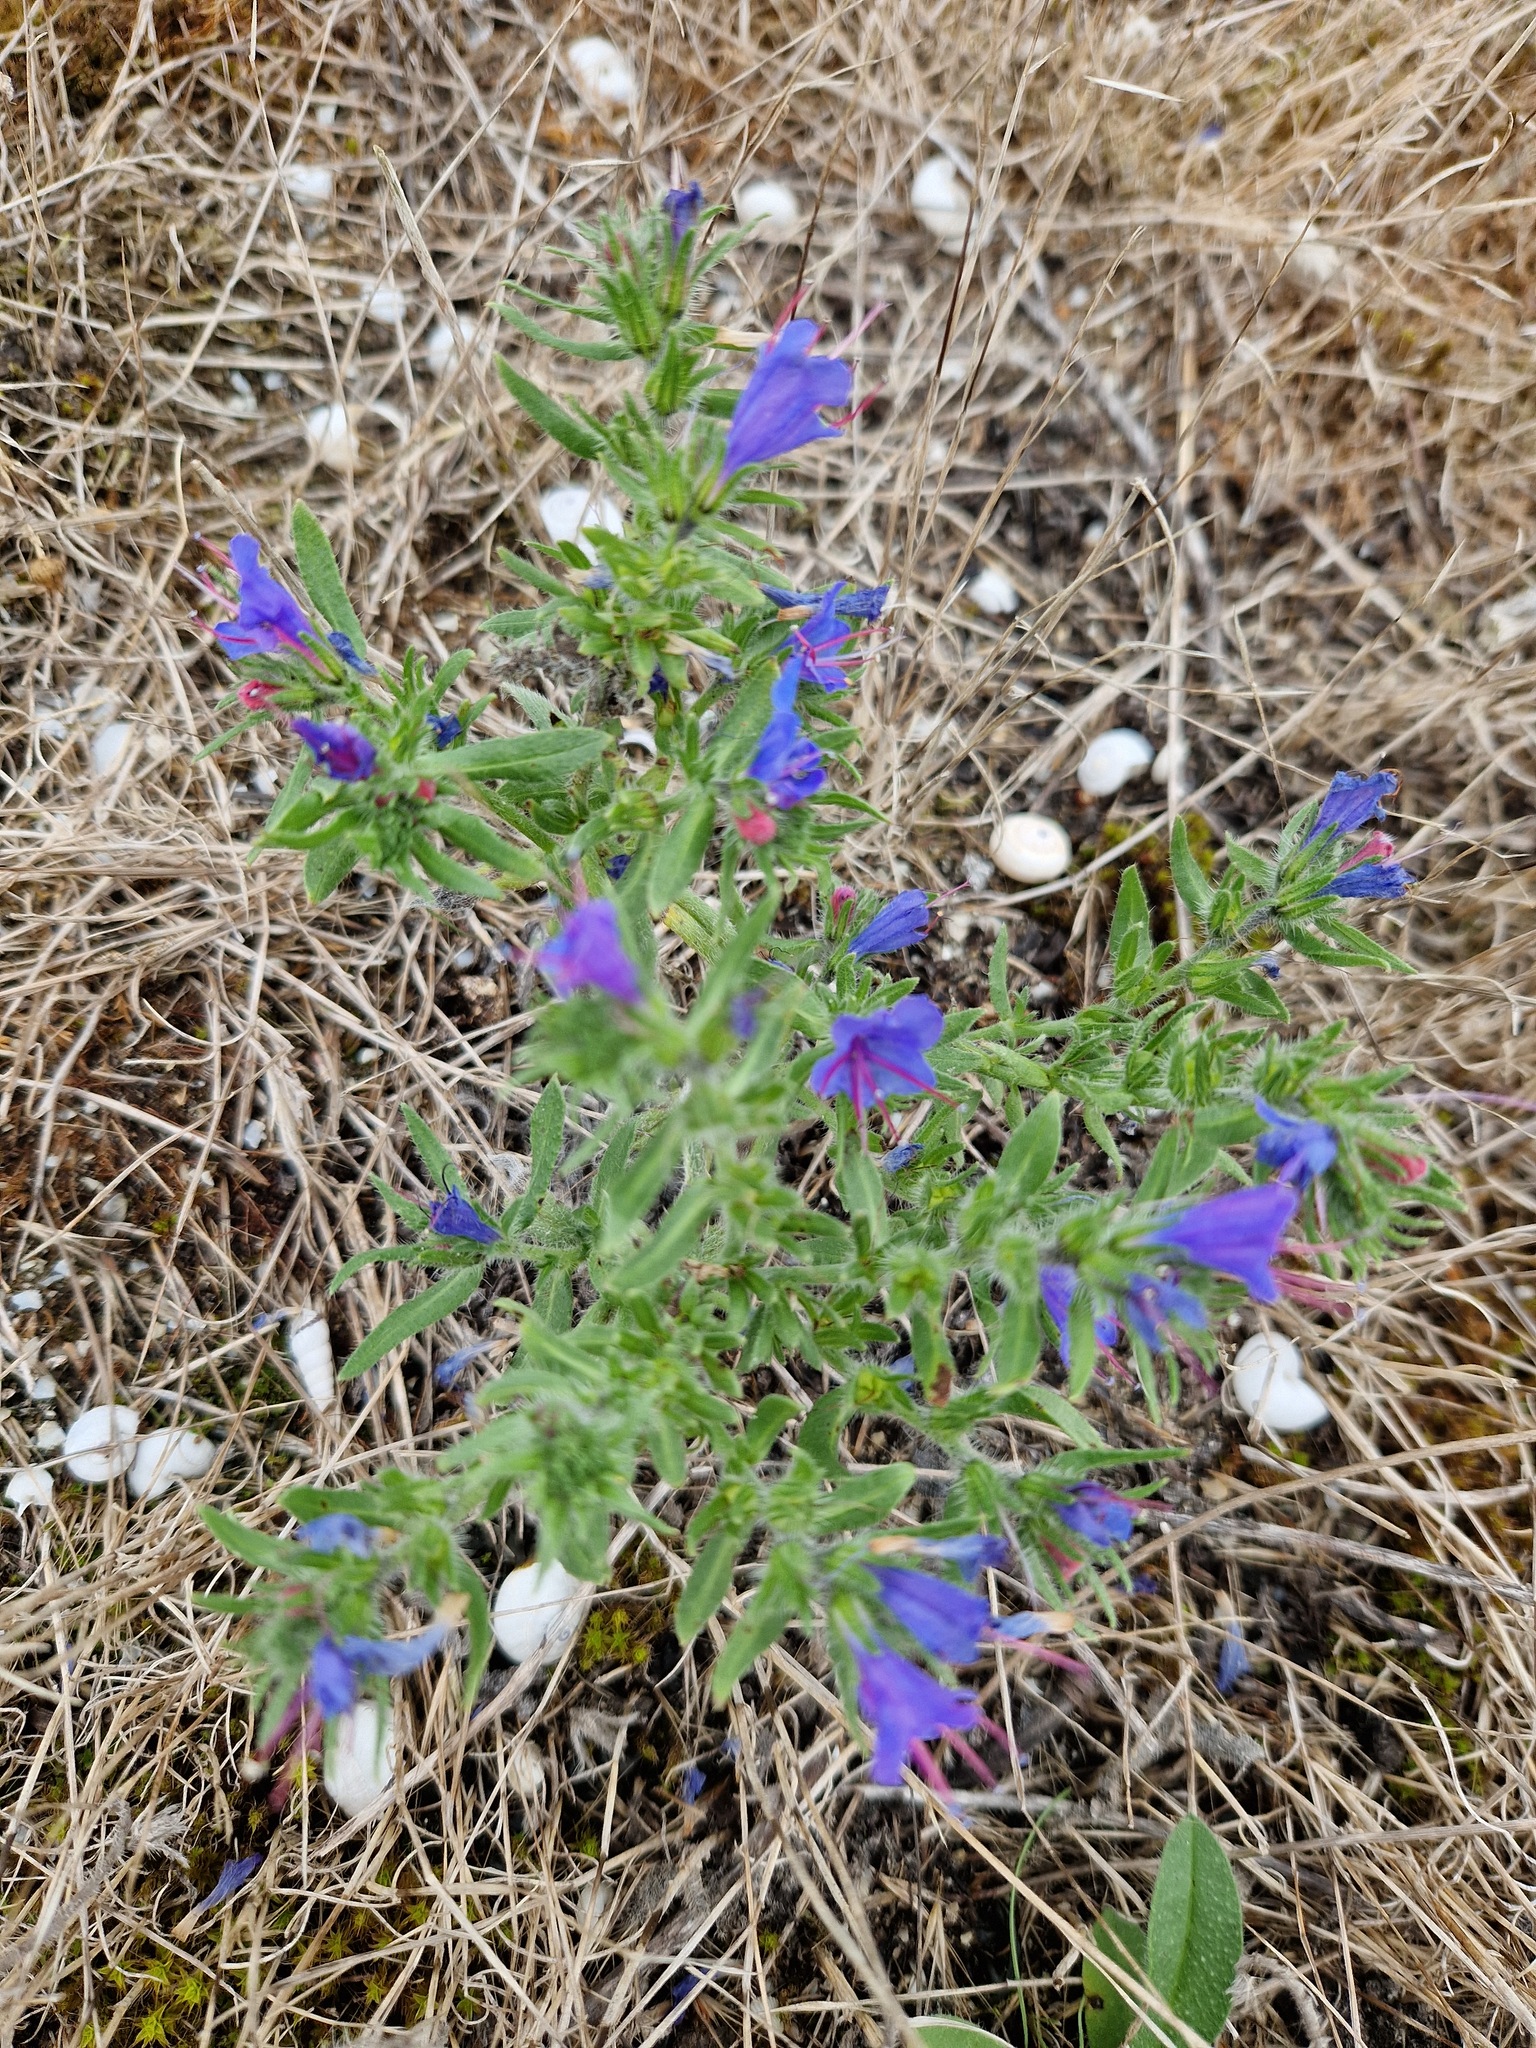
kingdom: Plantae
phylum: Tracheophyta
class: Magnoliopsida
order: Boraginales
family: Boraginaceae
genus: Echium
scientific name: Echium vulgare
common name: Common viper's bugloss
